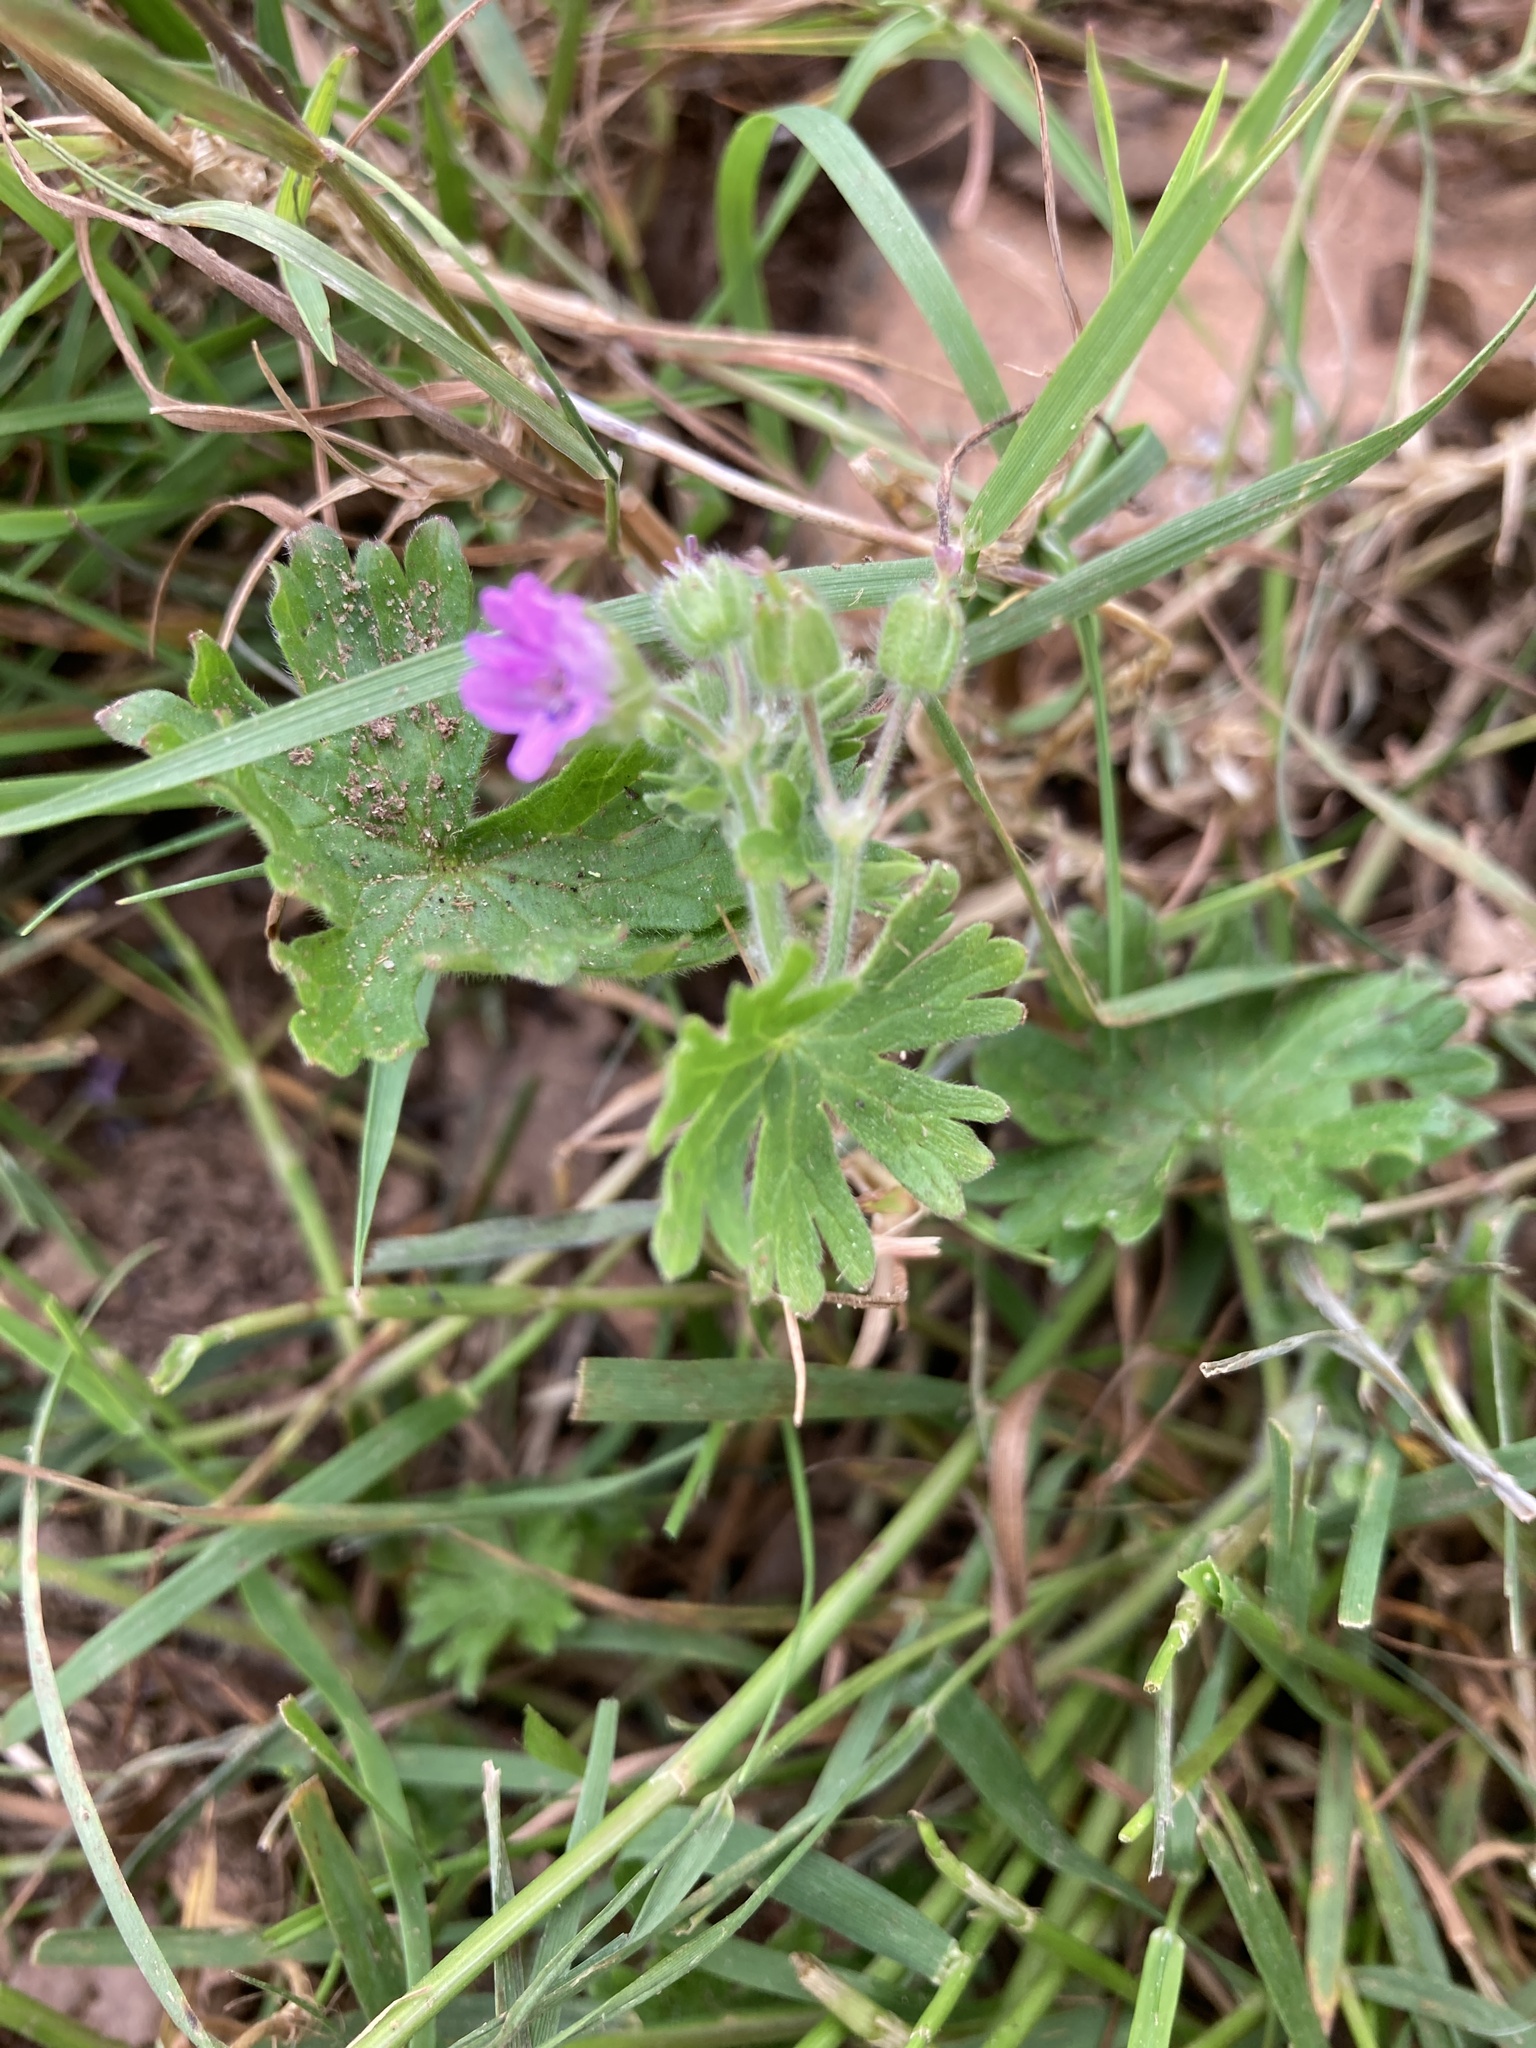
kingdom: Plantae
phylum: Tracheophyta
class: Magnoliopsida
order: Geraniales
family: Geraniaceae
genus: Geranium
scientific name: Geranium molle
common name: Dove's-foot crane's-bill
